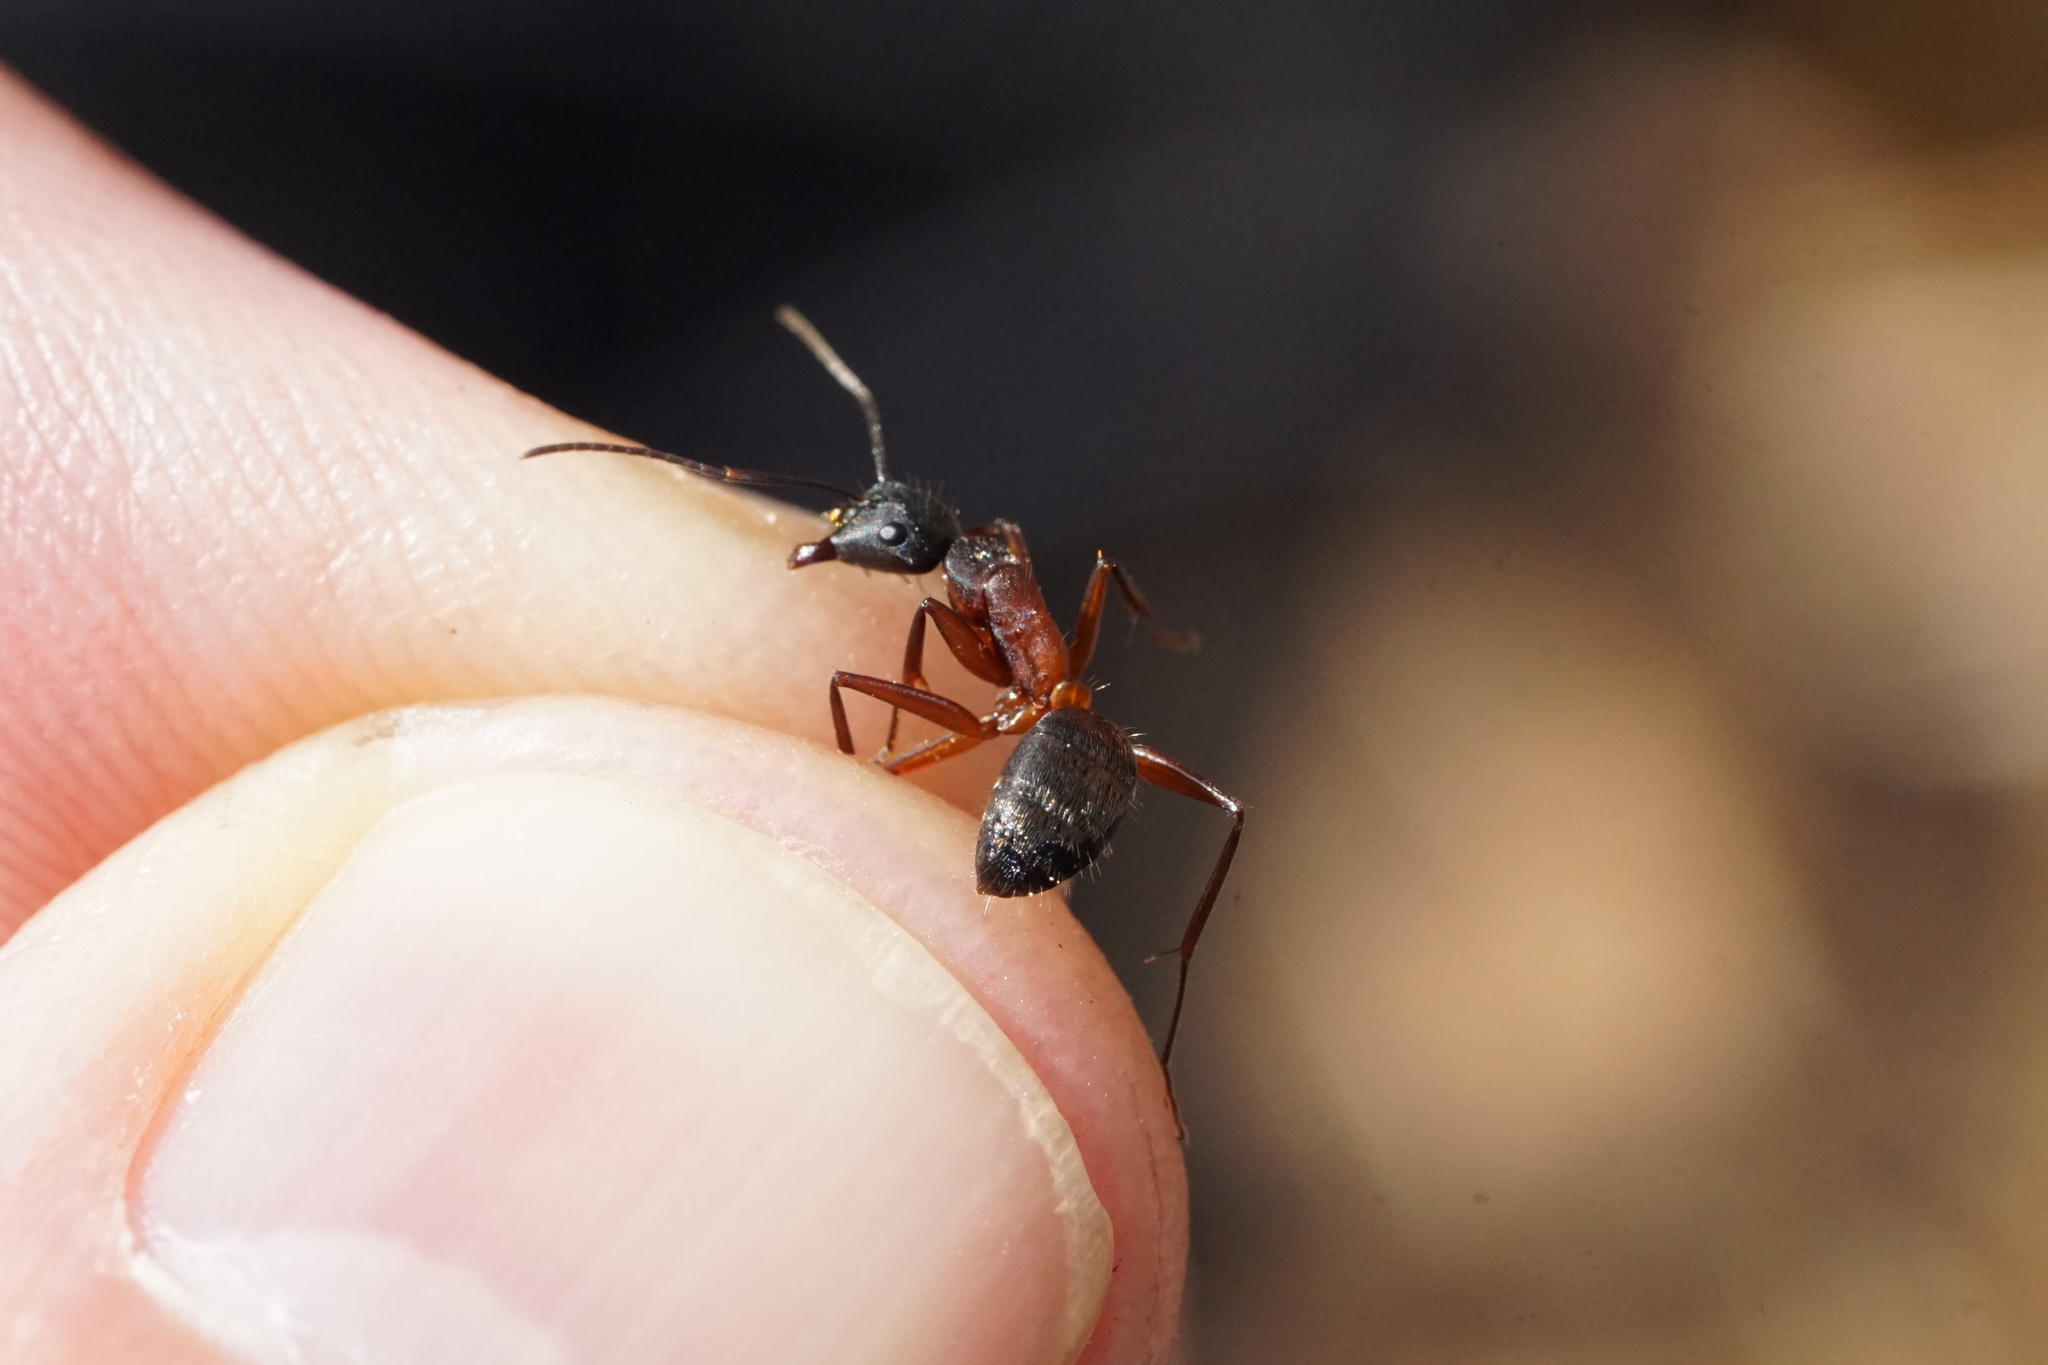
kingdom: Animalia
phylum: Arthropoda
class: Insecta
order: Hymenoptera
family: Formicidae
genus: Camponotus
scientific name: Camponotus chromaiodes
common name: Red carpenter ant
